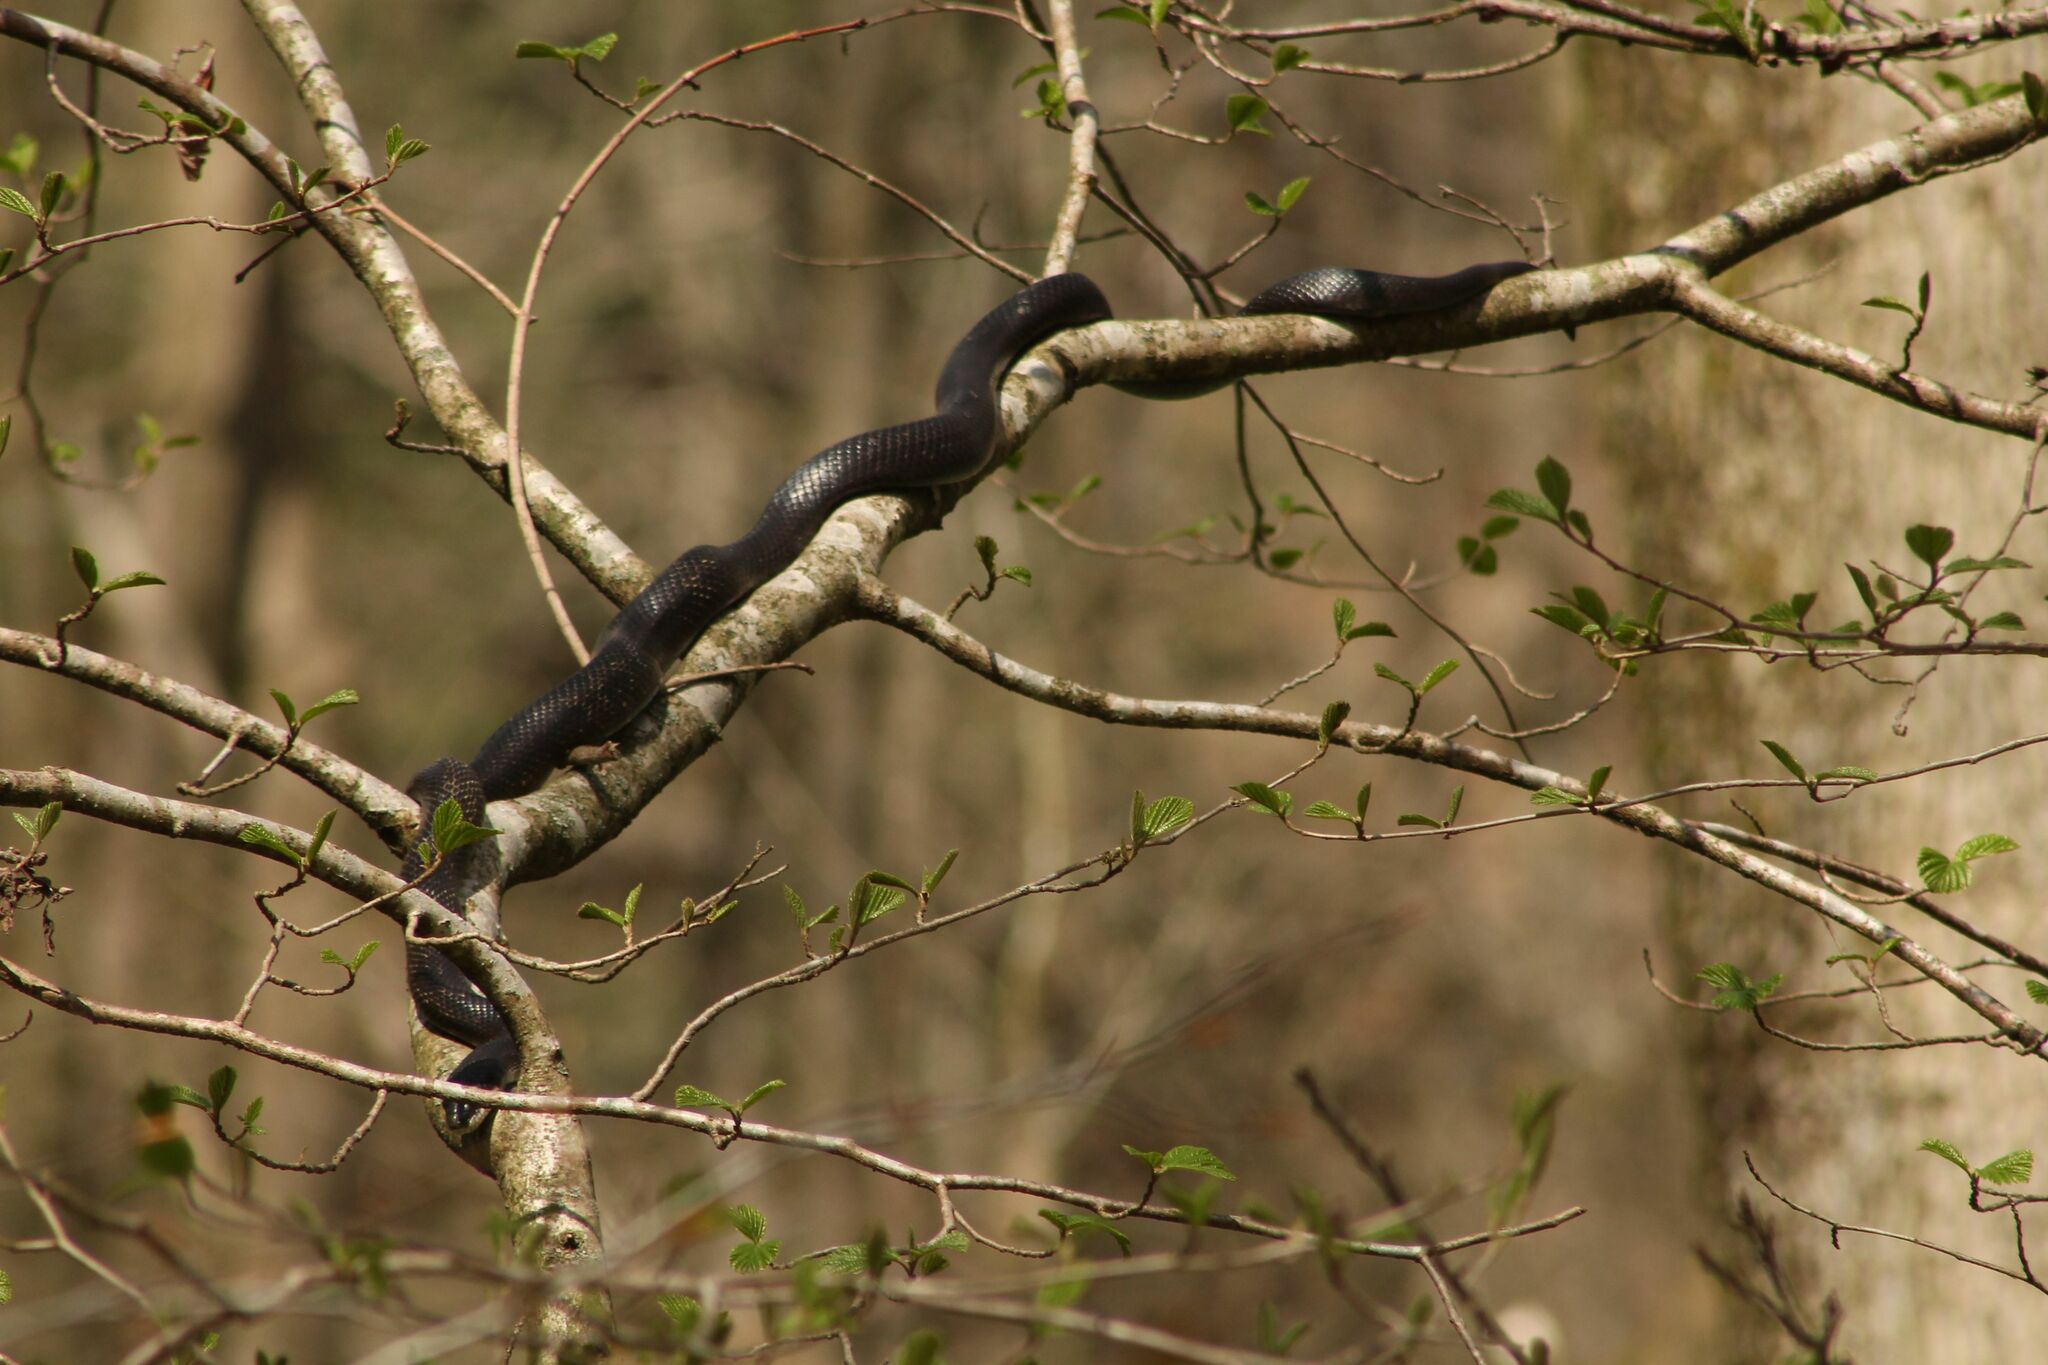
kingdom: Animalia
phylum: Chordata
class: Squamata
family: Colubridae
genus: Pantherophis
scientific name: Pantherophis spiloides
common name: Gray rat snake
